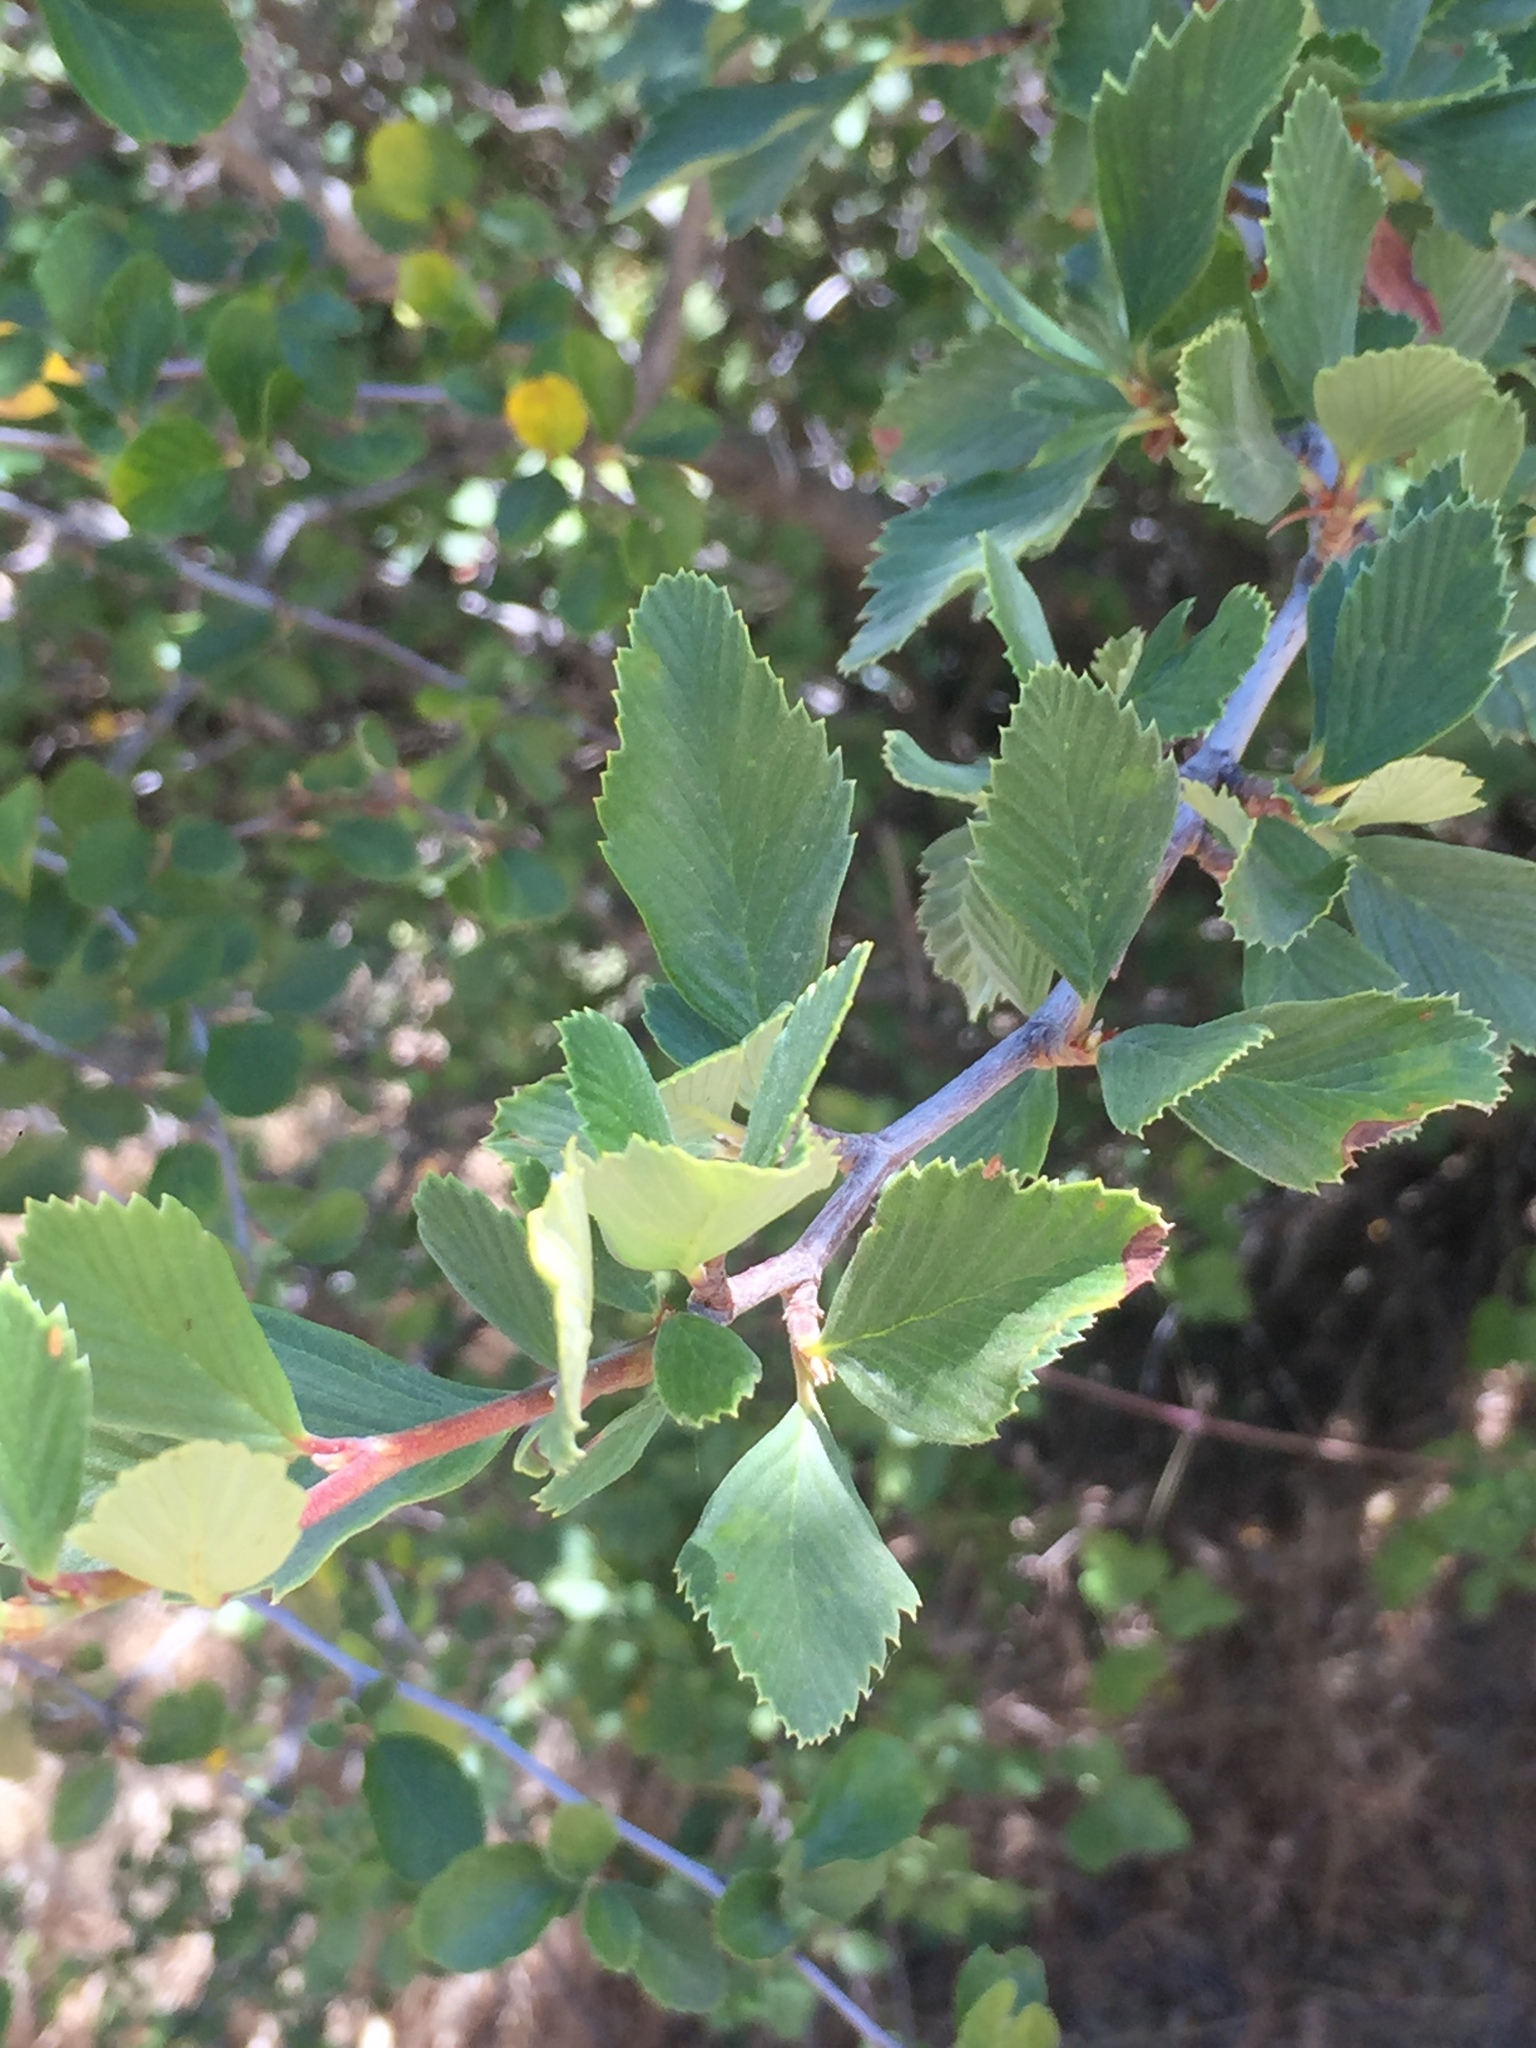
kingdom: Plantae
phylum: Tracheophyta
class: Magnoliopsida
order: Rosales
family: Rosaceae
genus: Cercocarpus
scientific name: Cercocarpus betuloides
